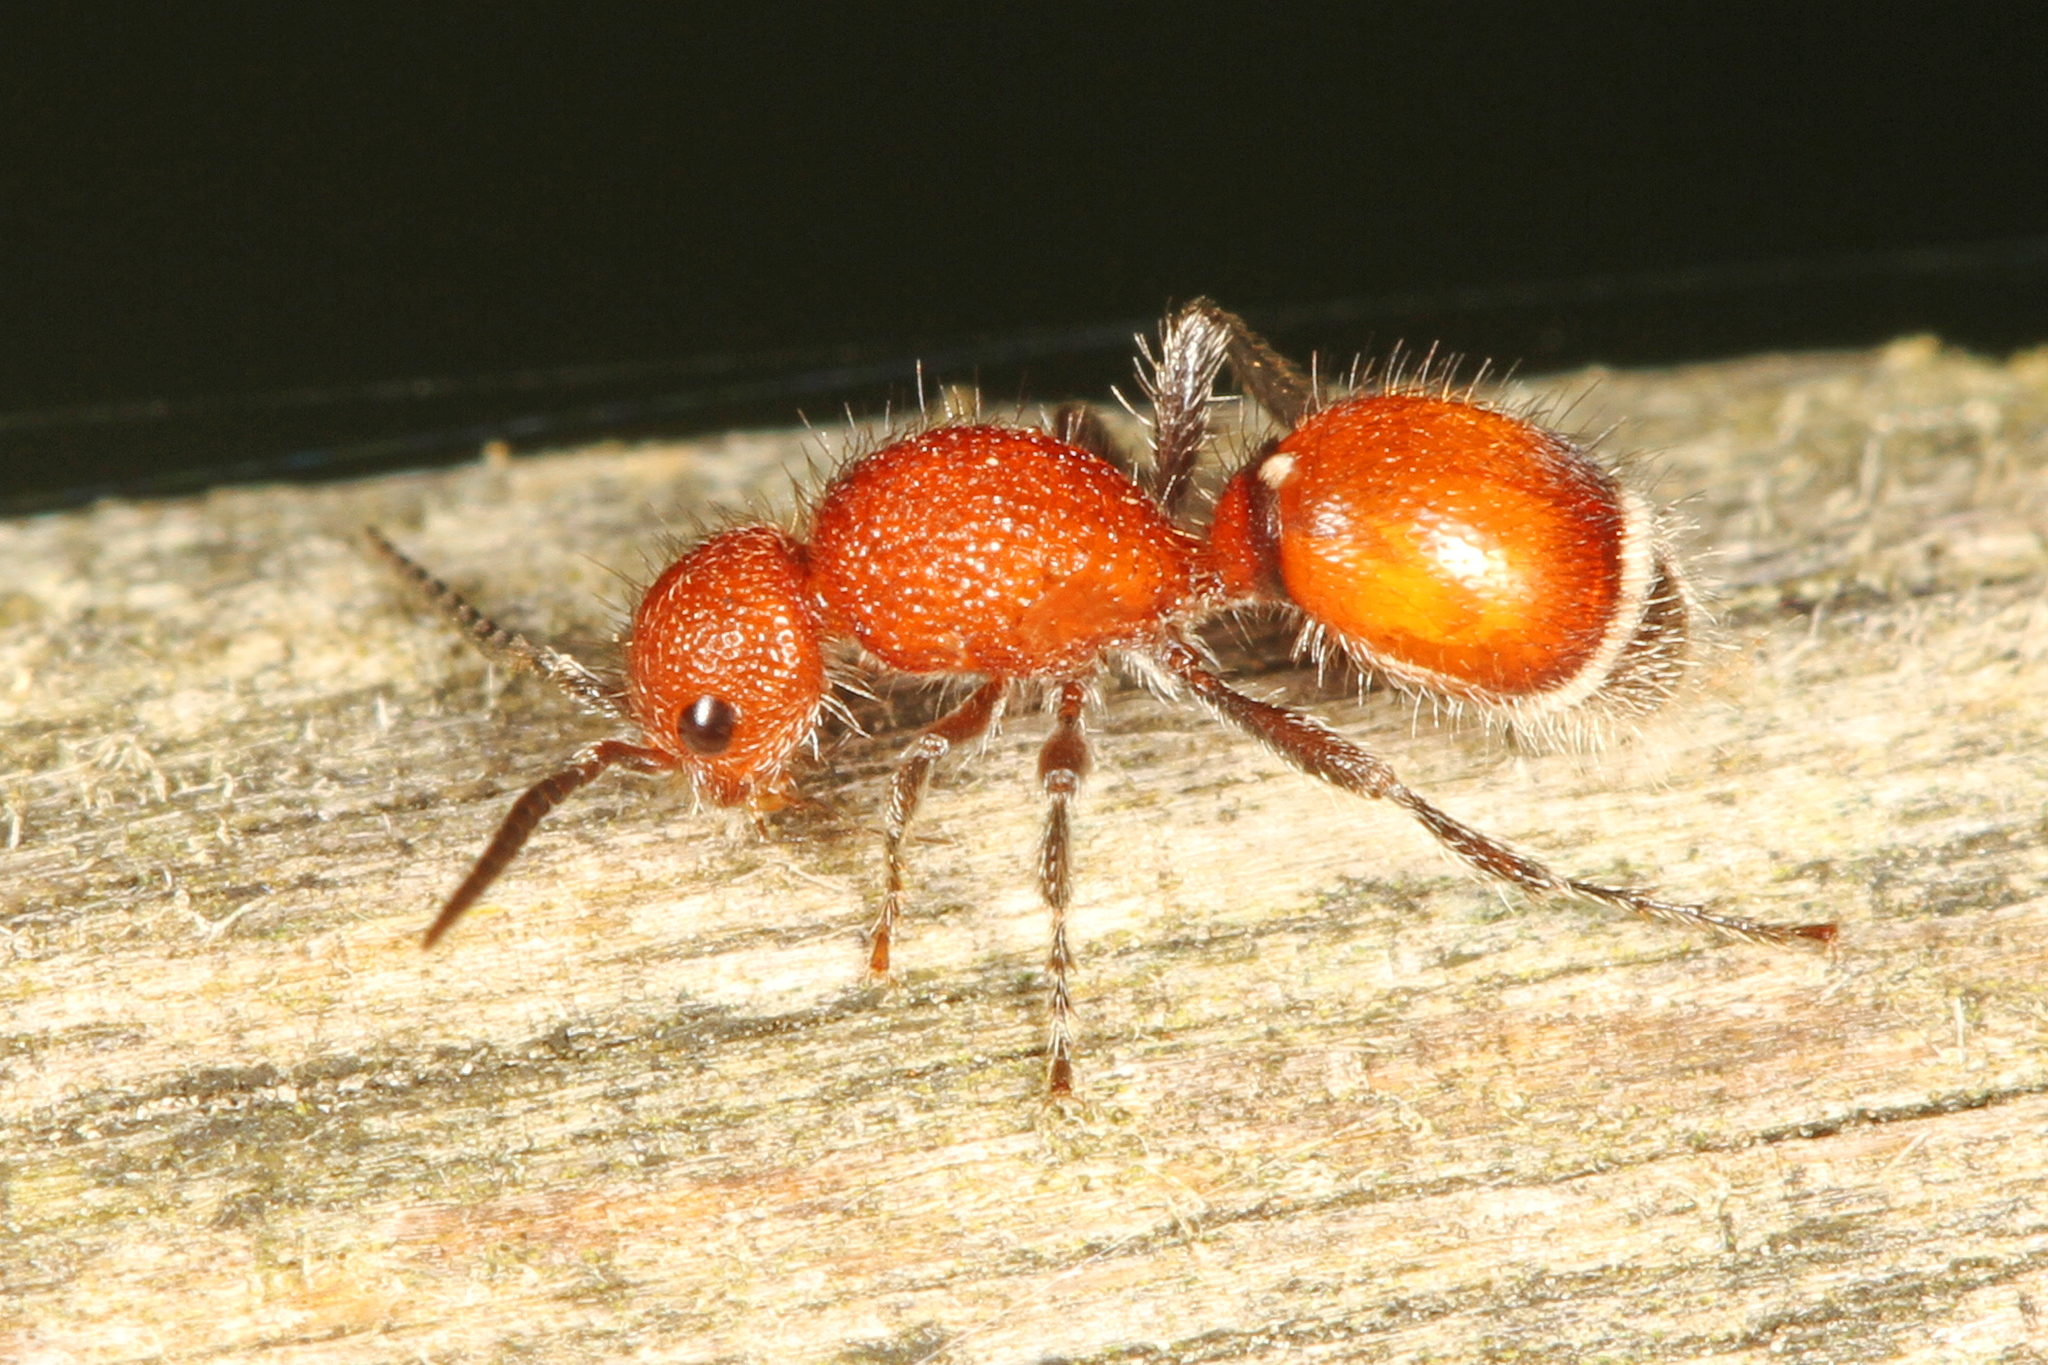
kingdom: Animalia
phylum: Arthropoda
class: Insecta
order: Hymenoptera
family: Mutillidae
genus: Sphaeropthalma
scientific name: Sphaeropthalma
